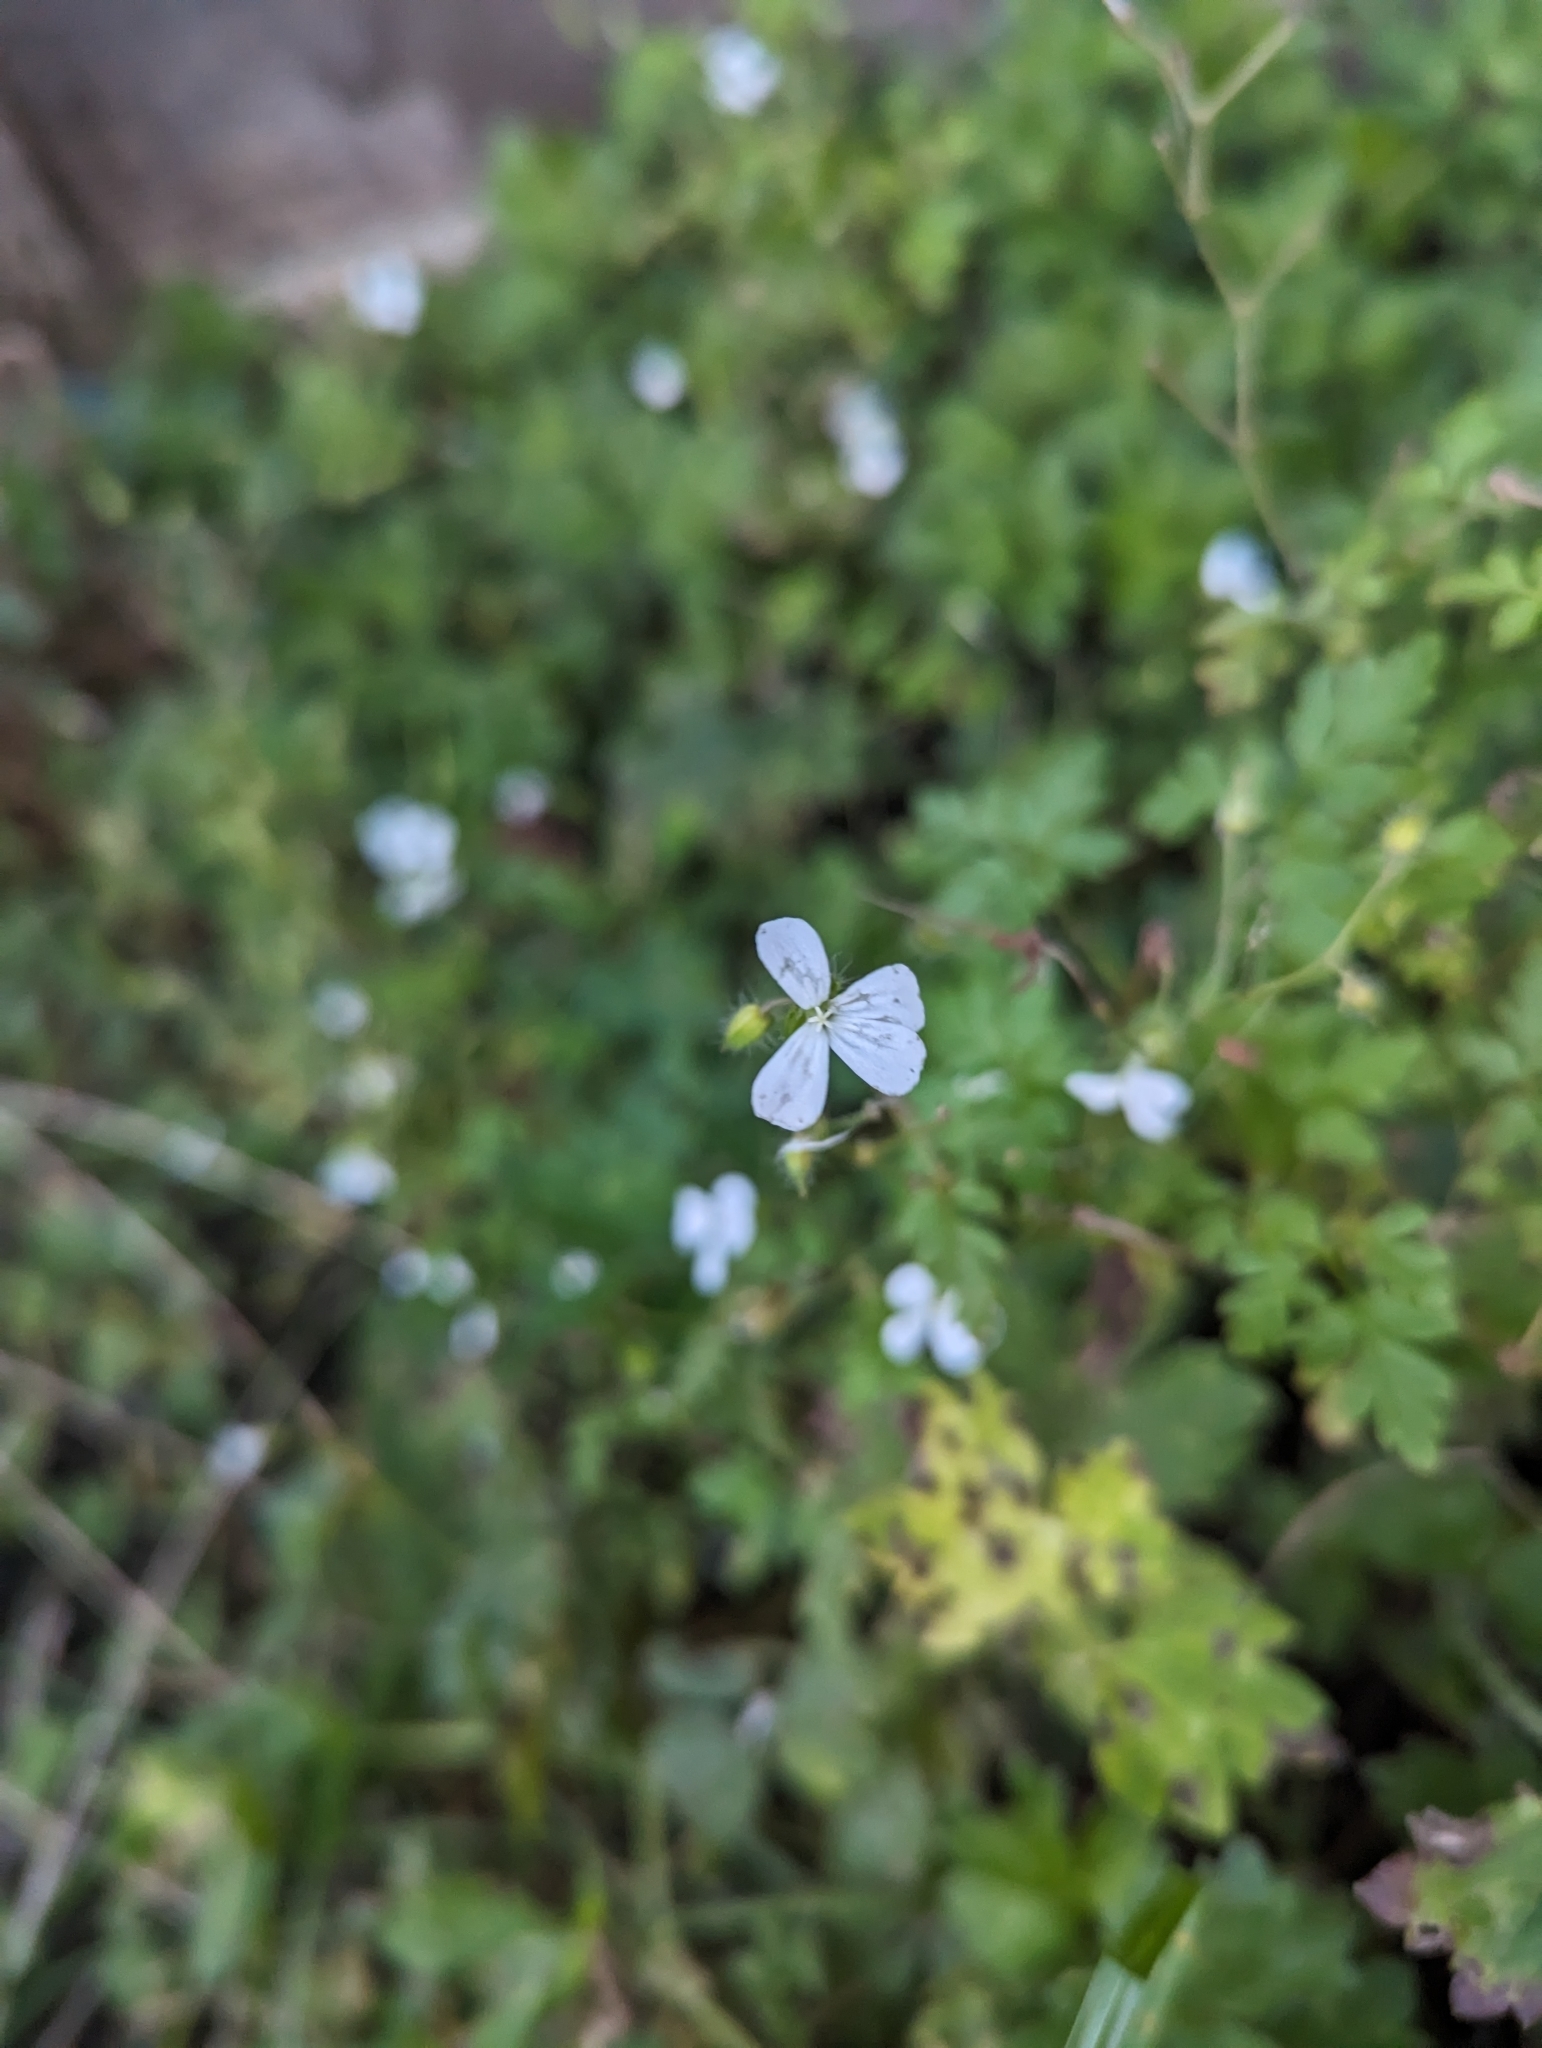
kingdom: Plantae
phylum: Tracheophyta
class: Magnoliopsida
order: Geraniales
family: Geraniaceae
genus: Geranium
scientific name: Geranium robertianum
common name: Herb-robert
